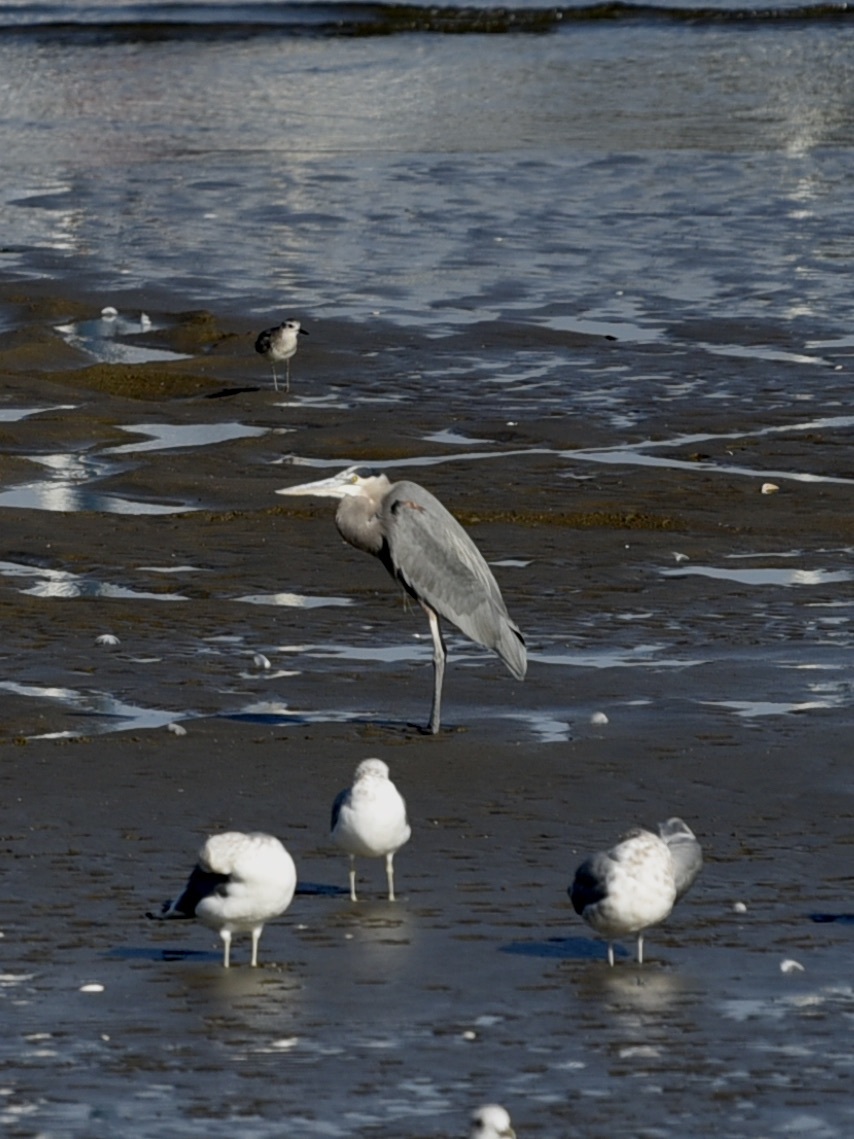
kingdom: Animalia
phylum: Chordata
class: Aves
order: Pelecaniformes
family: Ardeidae
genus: Ardea
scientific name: Ardea herodias
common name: Great blue heron
